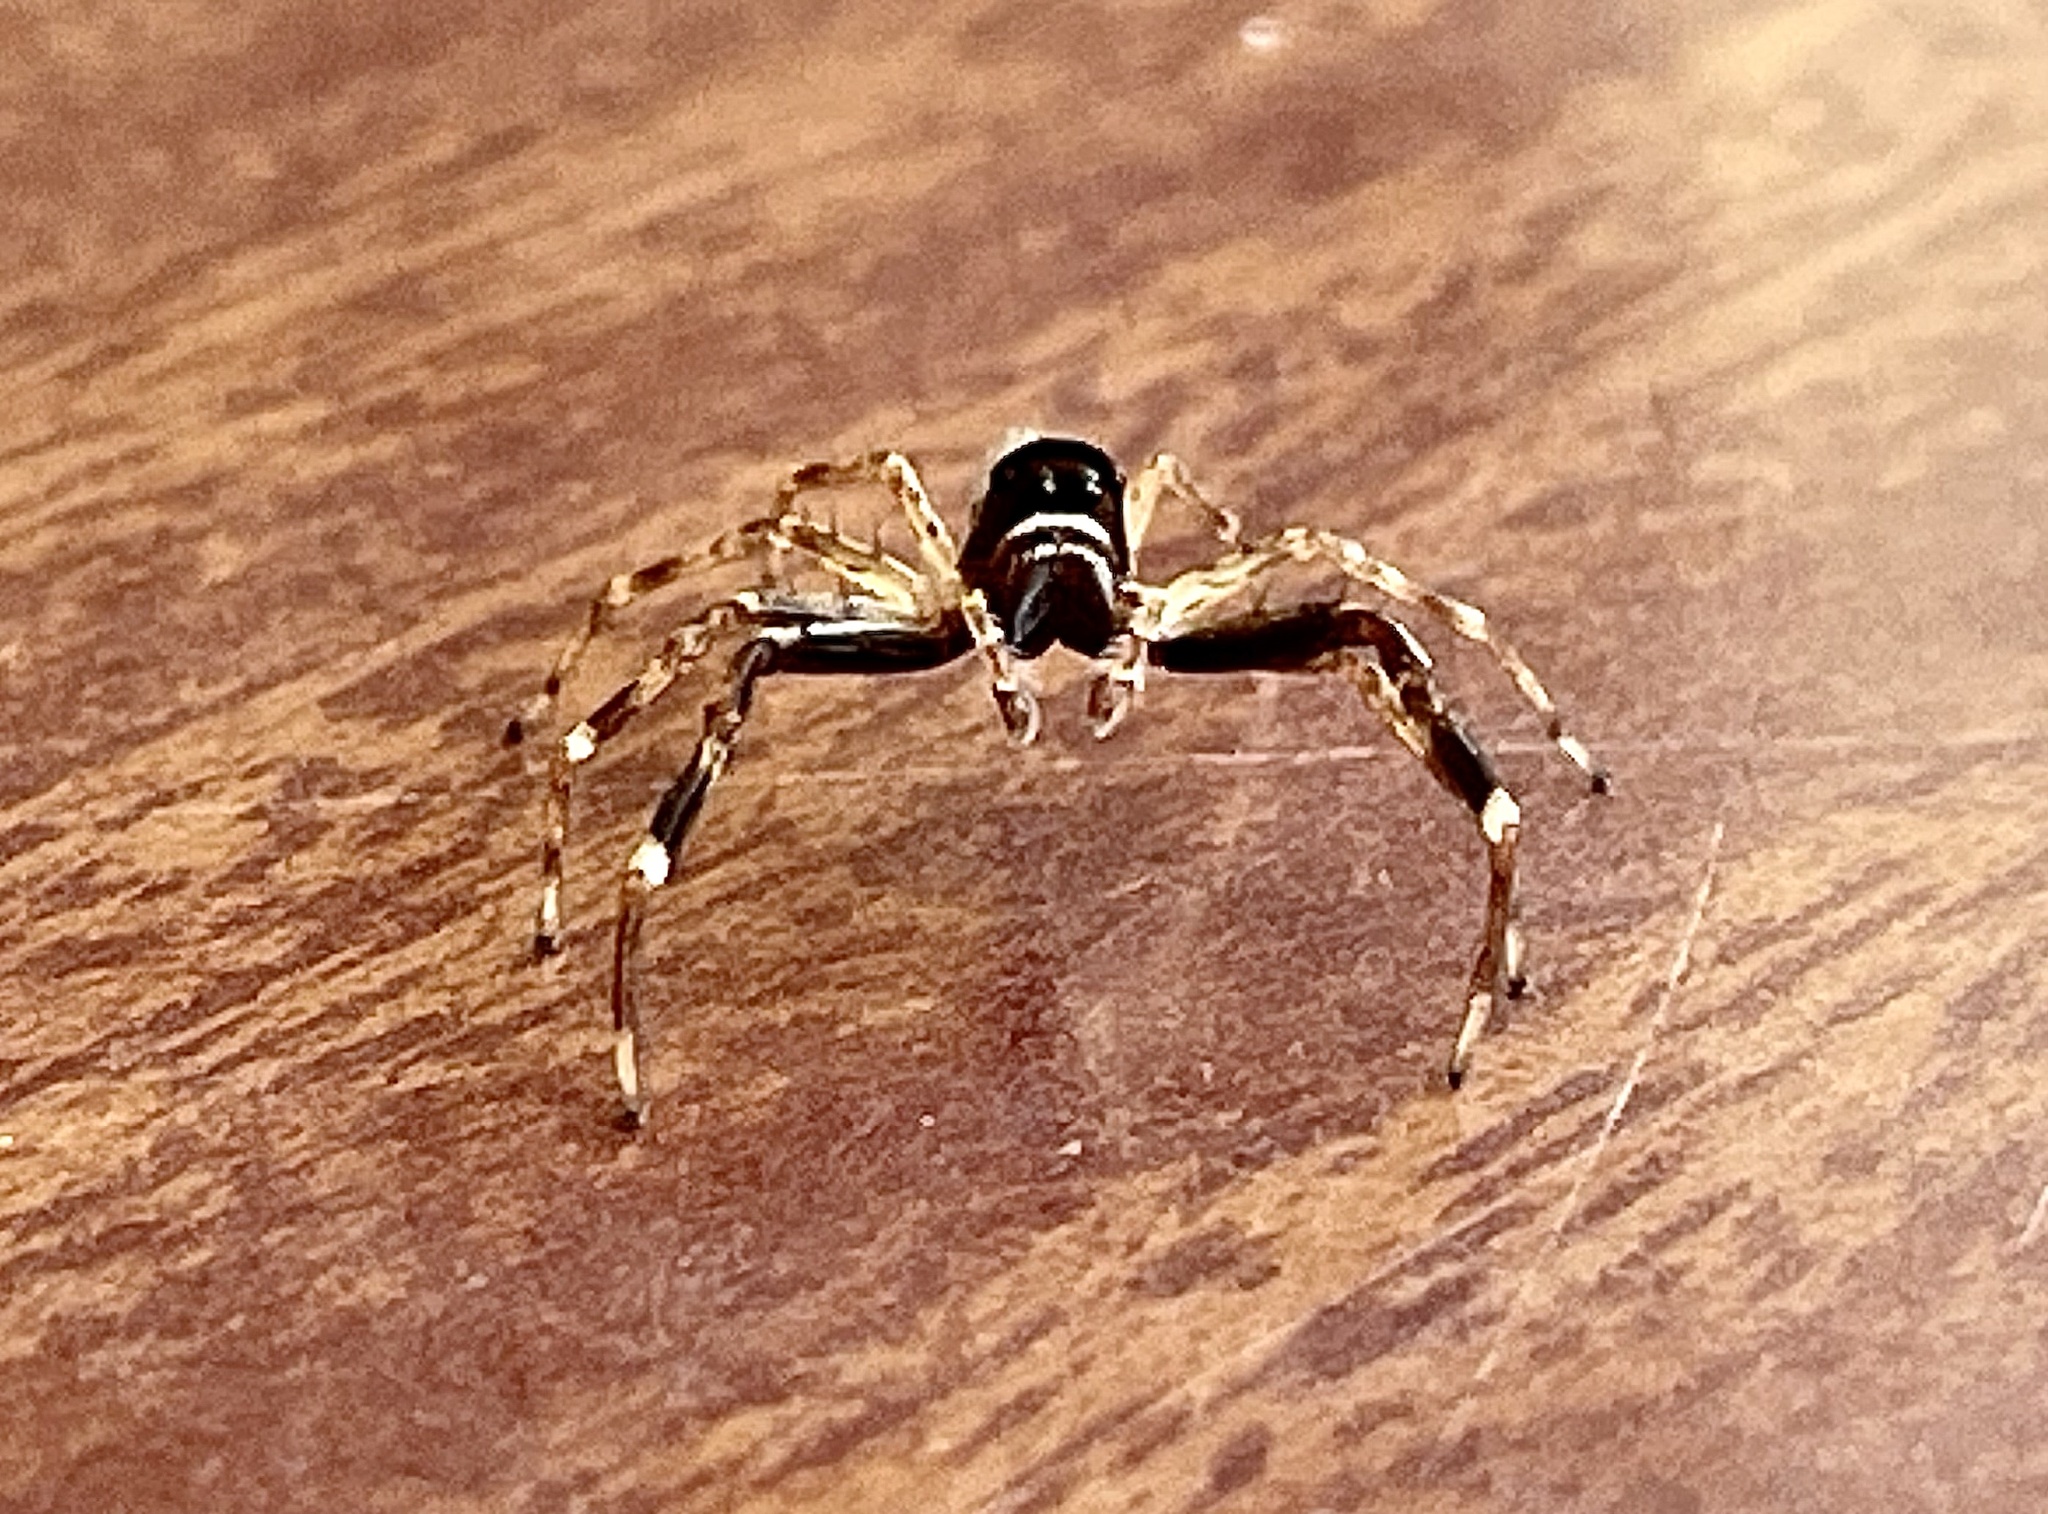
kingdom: Animalia
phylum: Arthropoda
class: Arachnida
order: Araneae
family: Salticidae
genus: Helpis
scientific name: Helpis minitabunda
